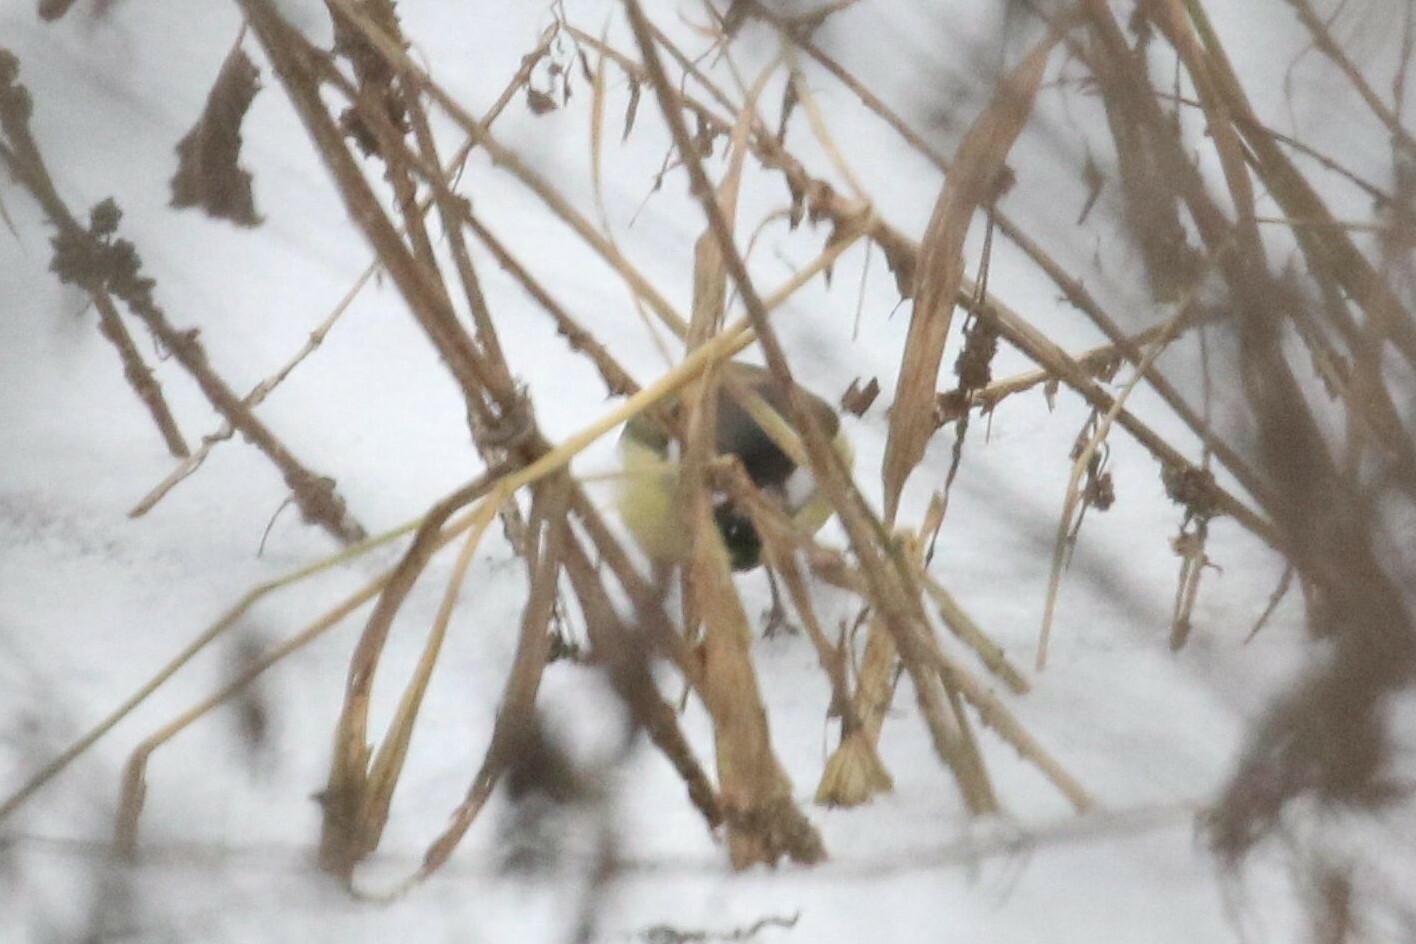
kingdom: Animalia
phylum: Chordata
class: Aves
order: Passeriformes
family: Paridae
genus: Parus
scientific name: Parus major
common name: Great tit
